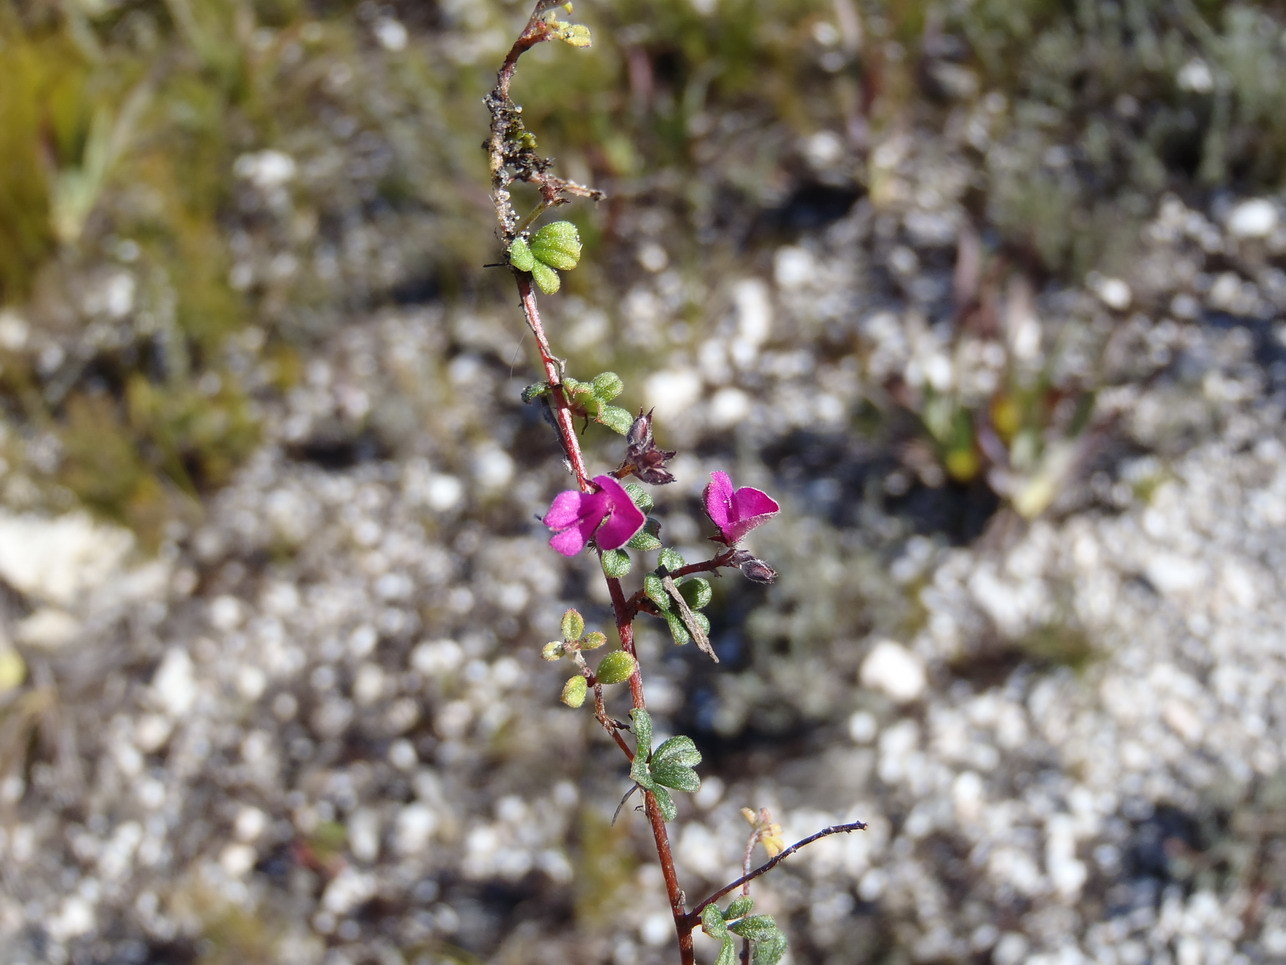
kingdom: Plantae
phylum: Tracheophyta
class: Magnoliopsida
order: Fabales
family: Fabaceae
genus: Indigofera
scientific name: Indigofera
